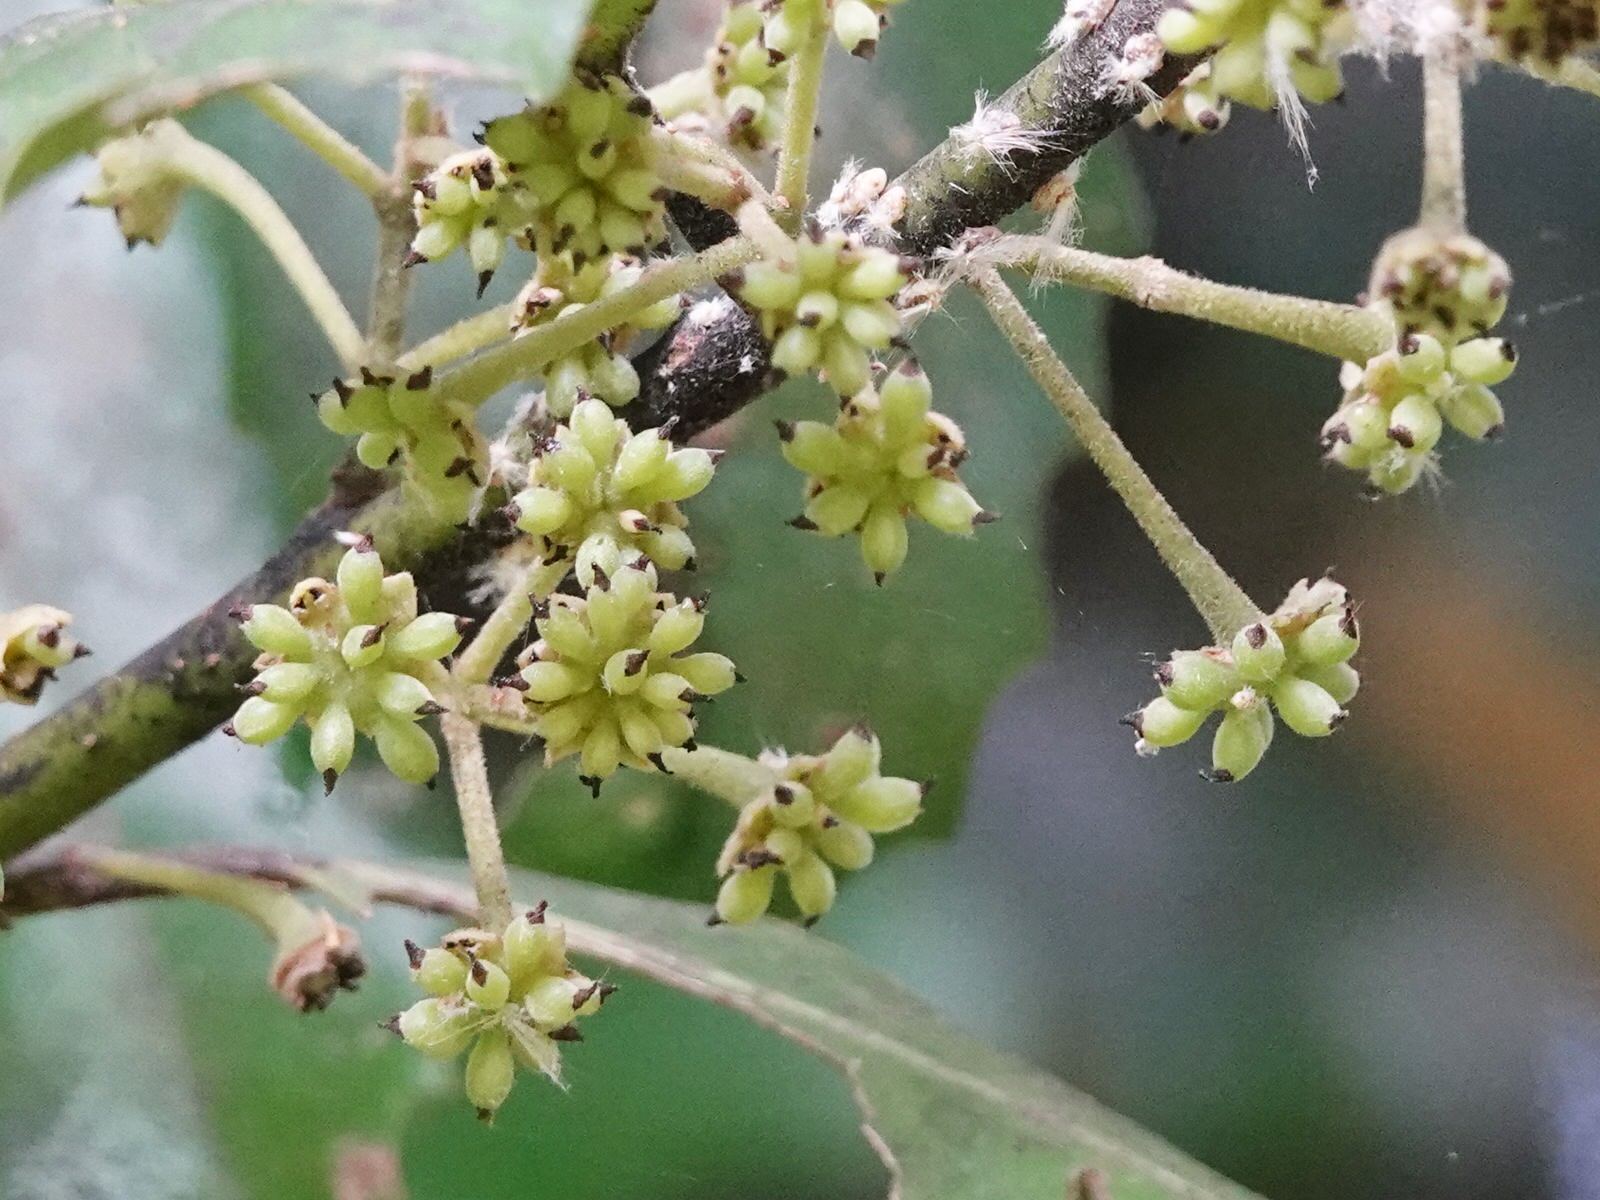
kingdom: Plantae
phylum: Tracheophyta
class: Magnoliopsida
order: Laurales
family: Monimiaceae
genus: Hedycarya
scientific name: Hedycarya arborea
